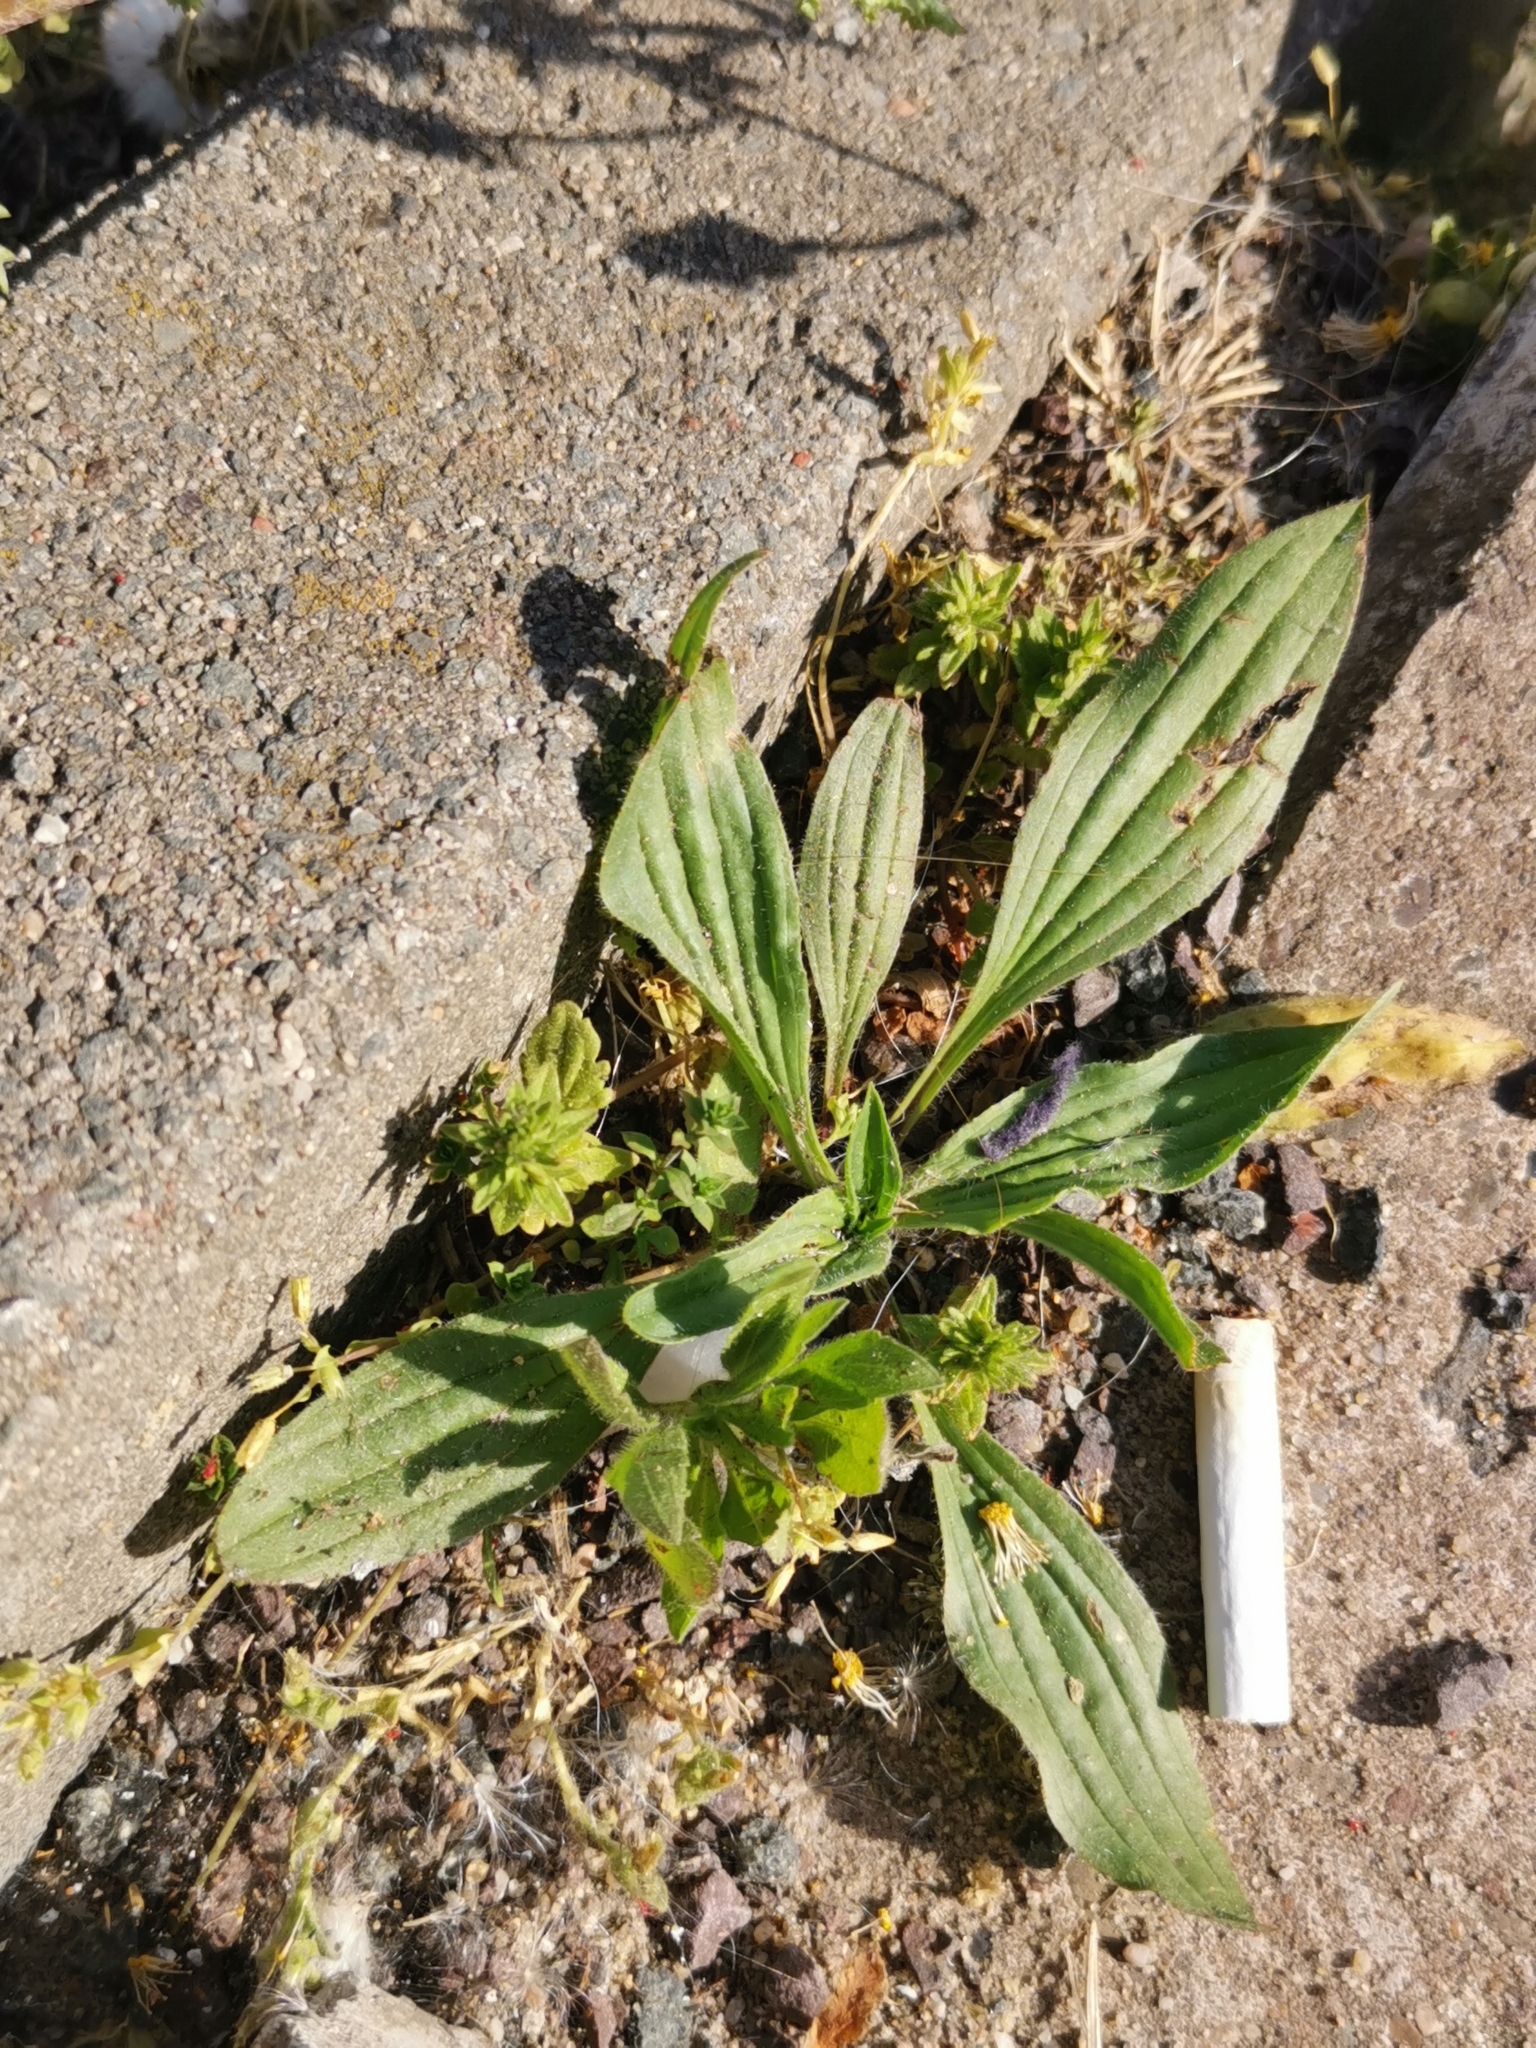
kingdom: Plantae
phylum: Tracheophyta
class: Magnoliopsida
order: Lamiales
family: Plantaginaceae
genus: Plantago
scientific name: Plantago lanceolata
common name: Ribwort plantain
